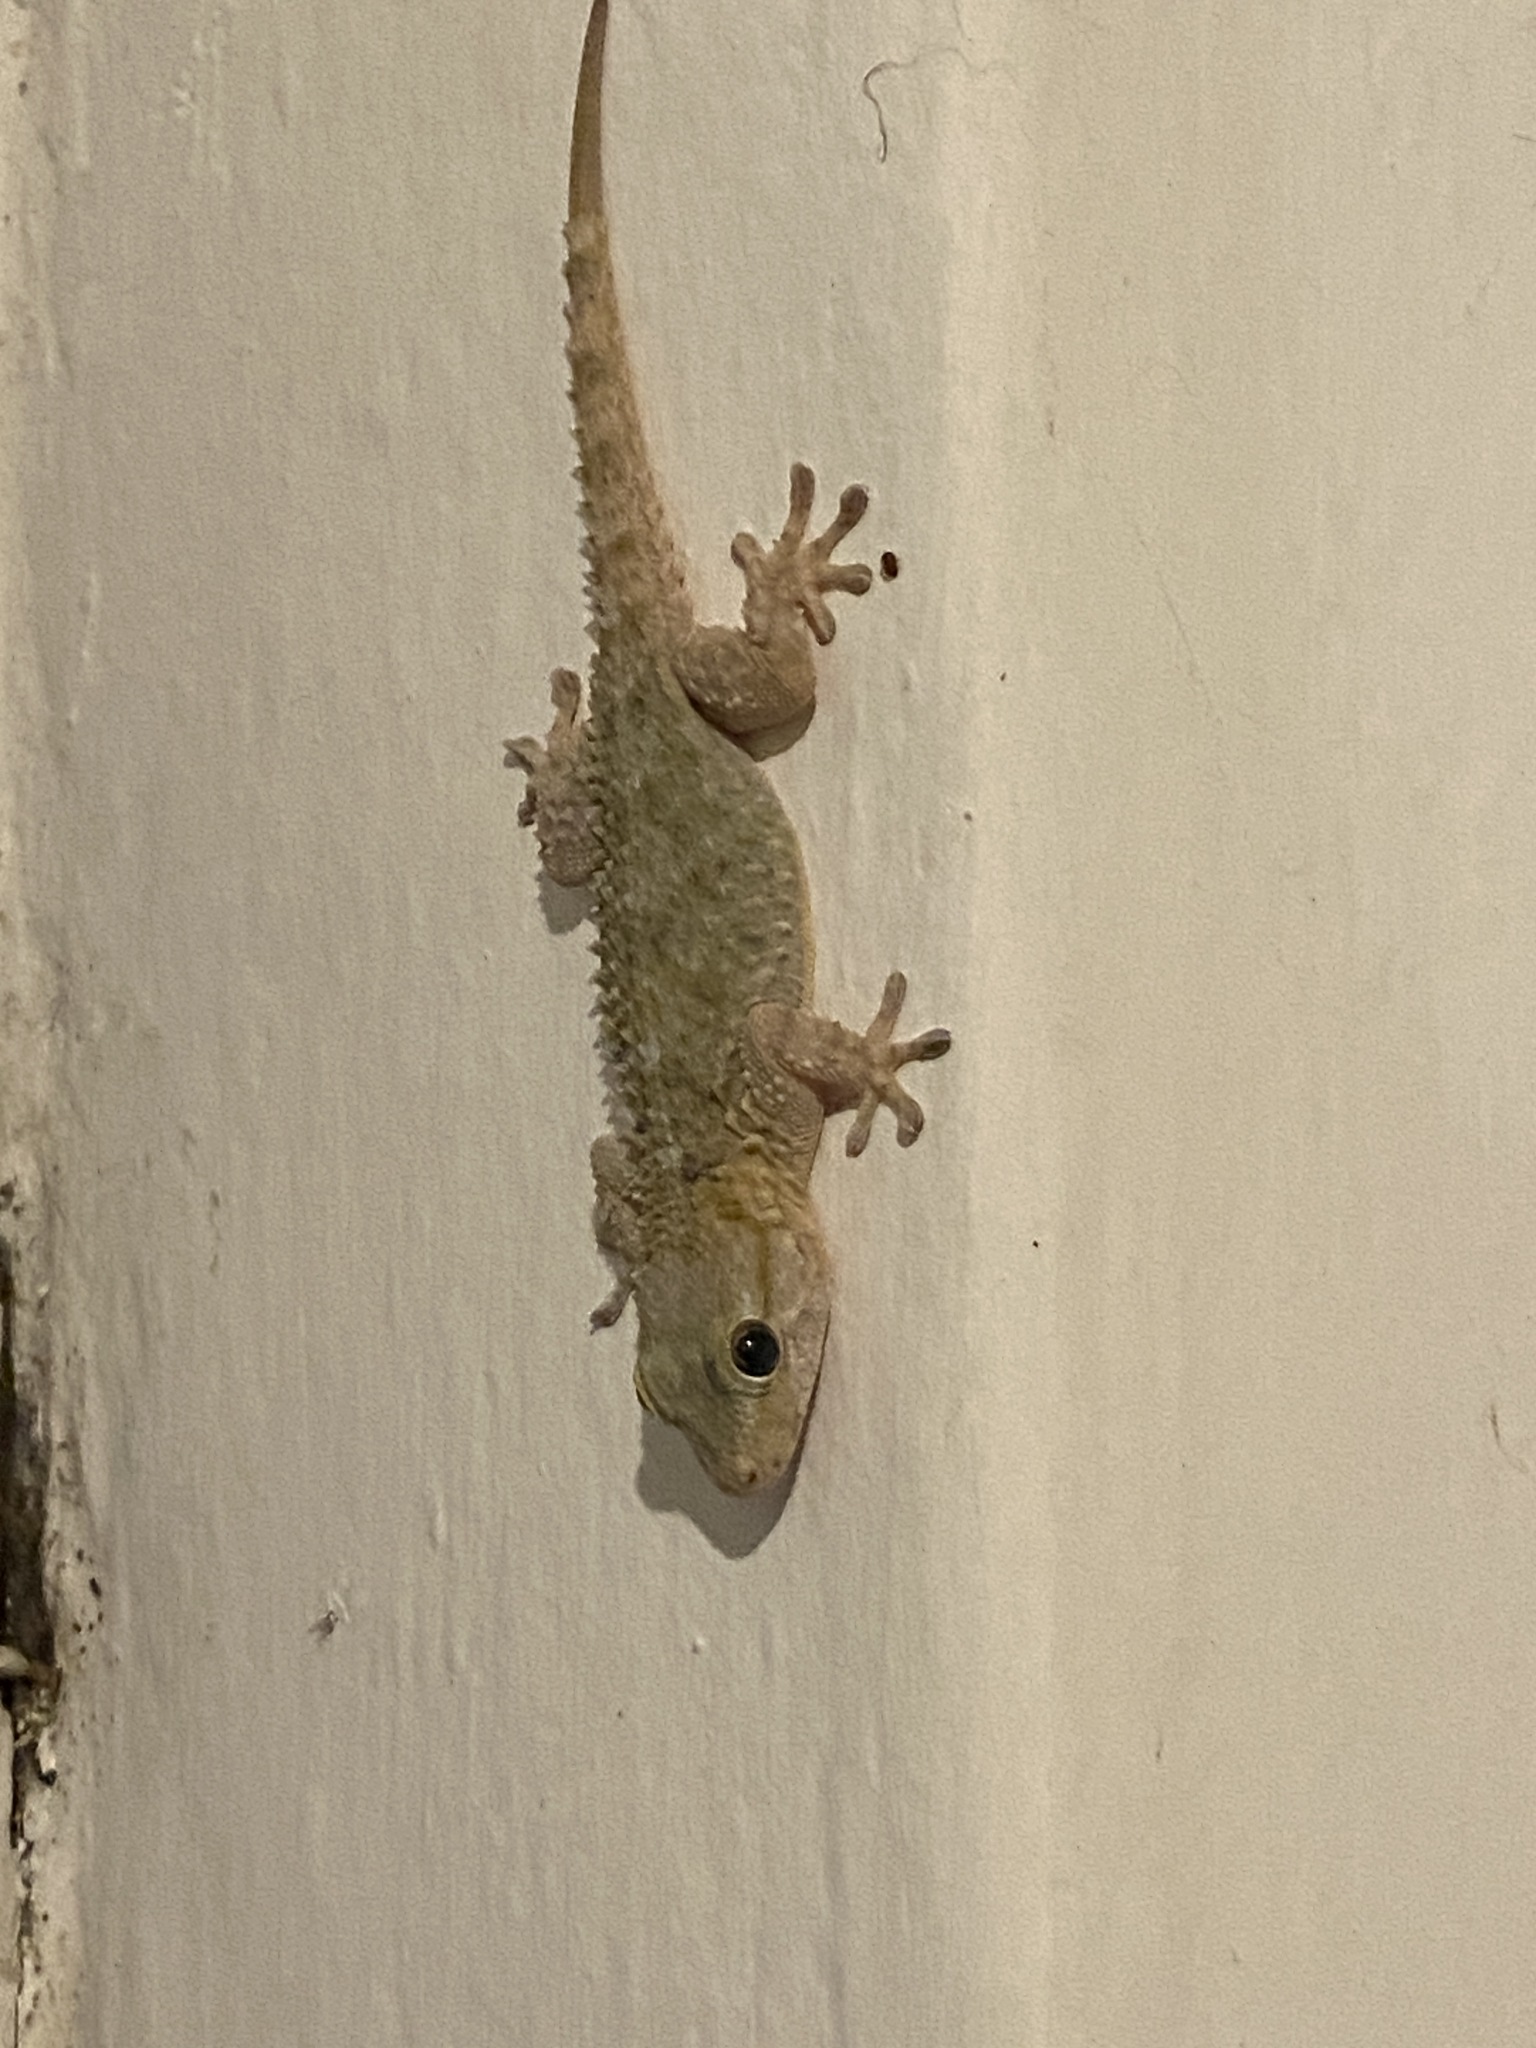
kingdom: Animalia
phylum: Chordata
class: Squamata
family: Phyllodactylidae
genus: Tarentola
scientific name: Tarentola mauritanica
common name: Moorish gecko
